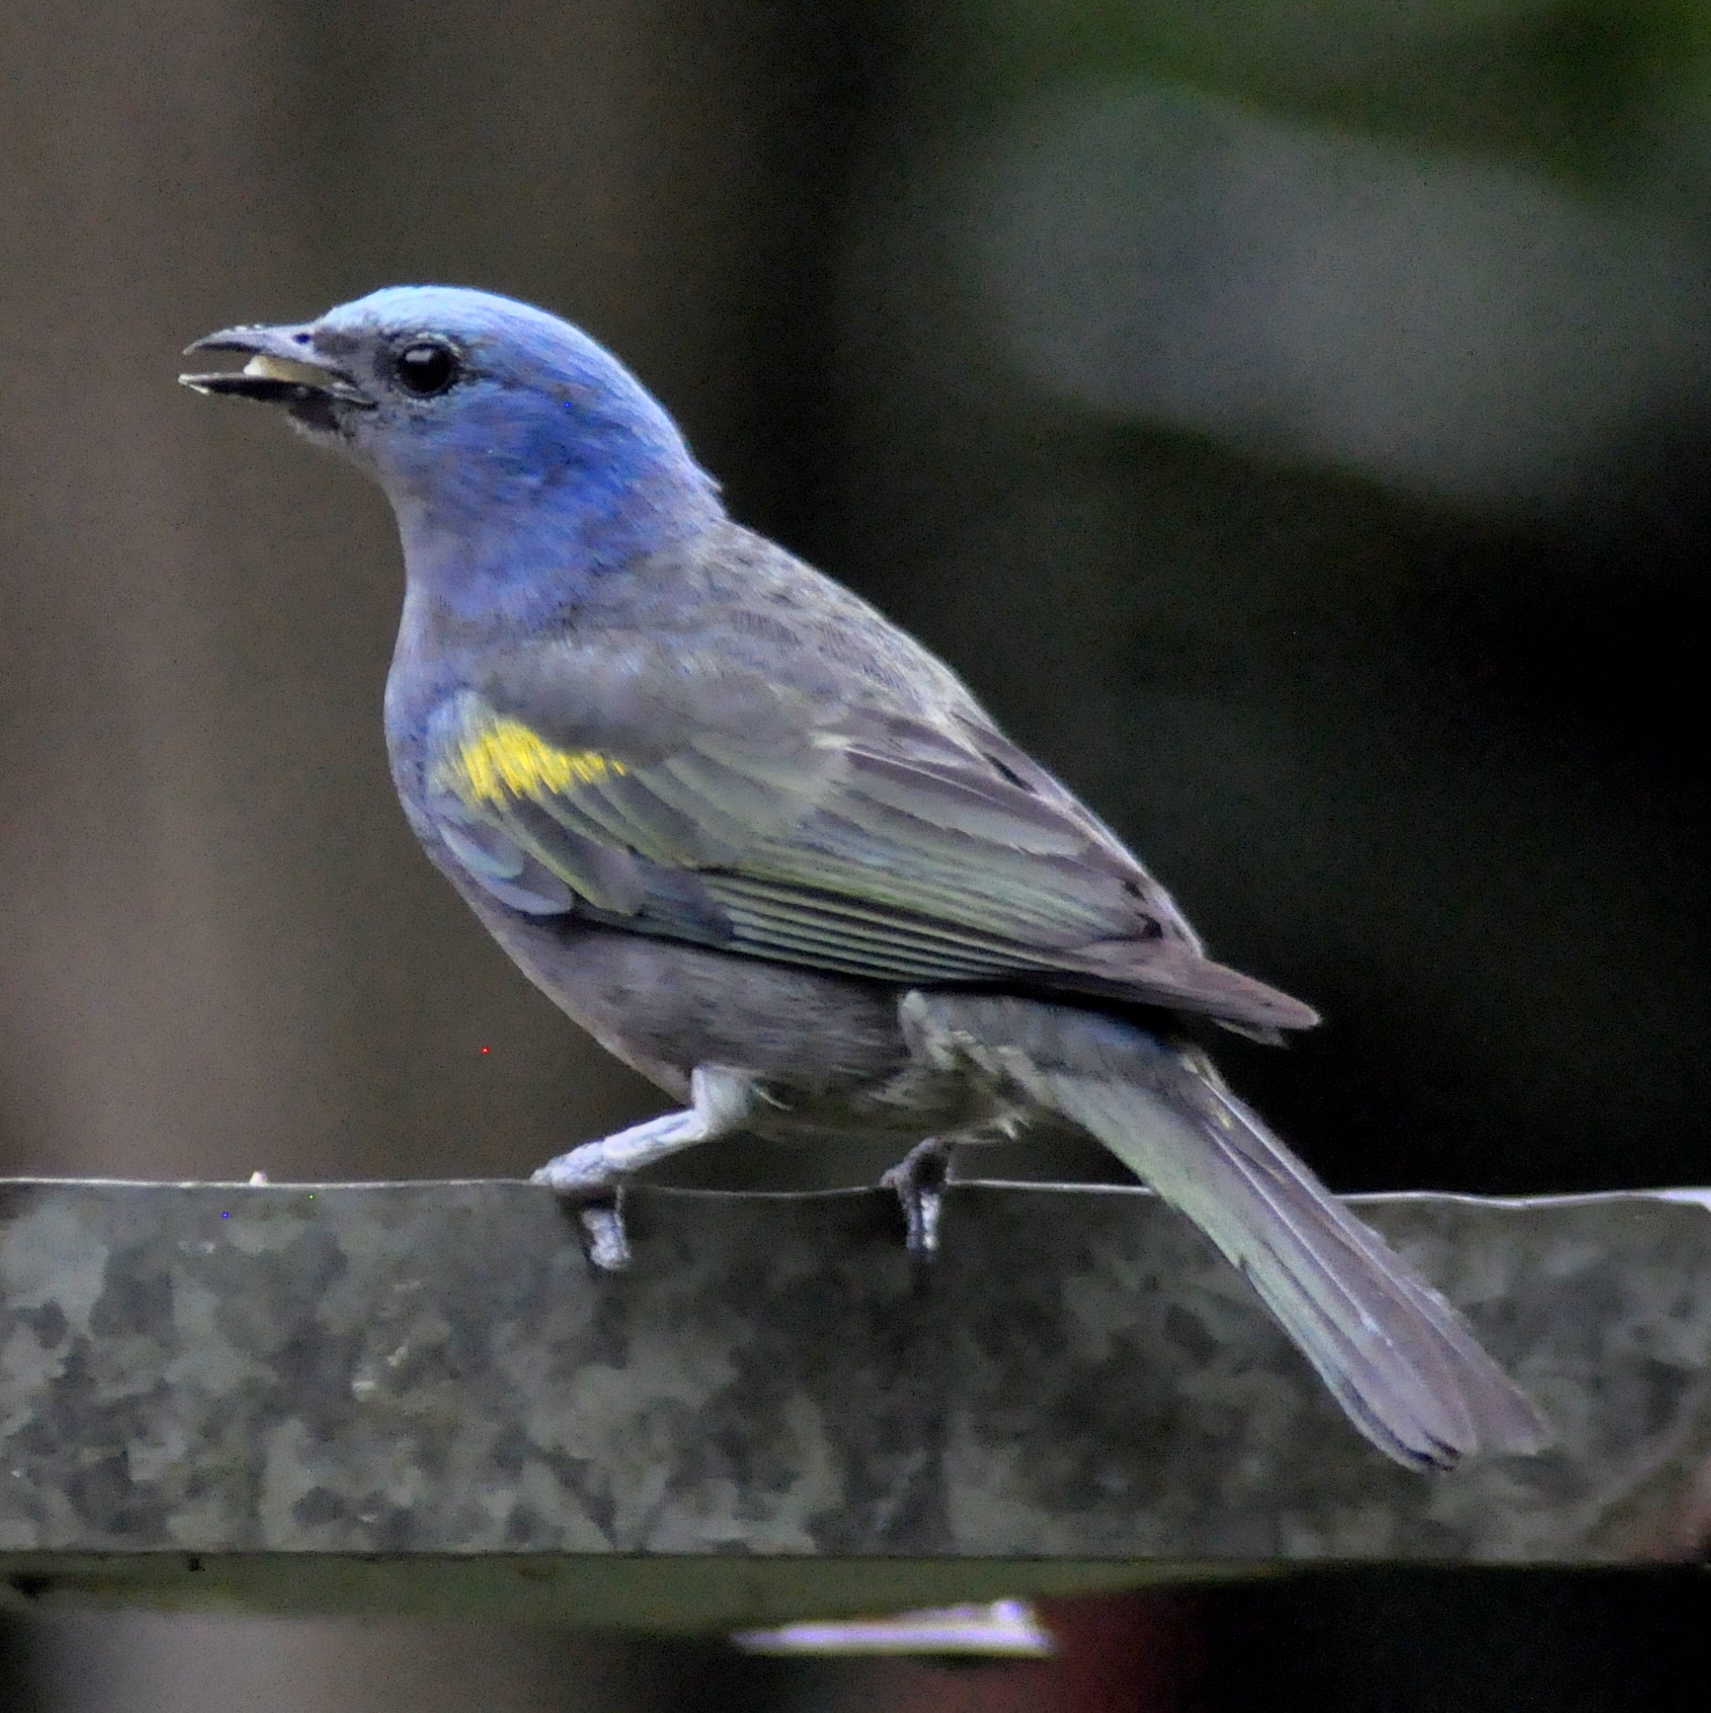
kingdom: Animalia
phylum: Chordata
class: Aves
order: Passeriformes
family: Thraupidae
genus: Thraupis
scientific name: Thraupis ornata
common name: Golden-chevroned tanager
